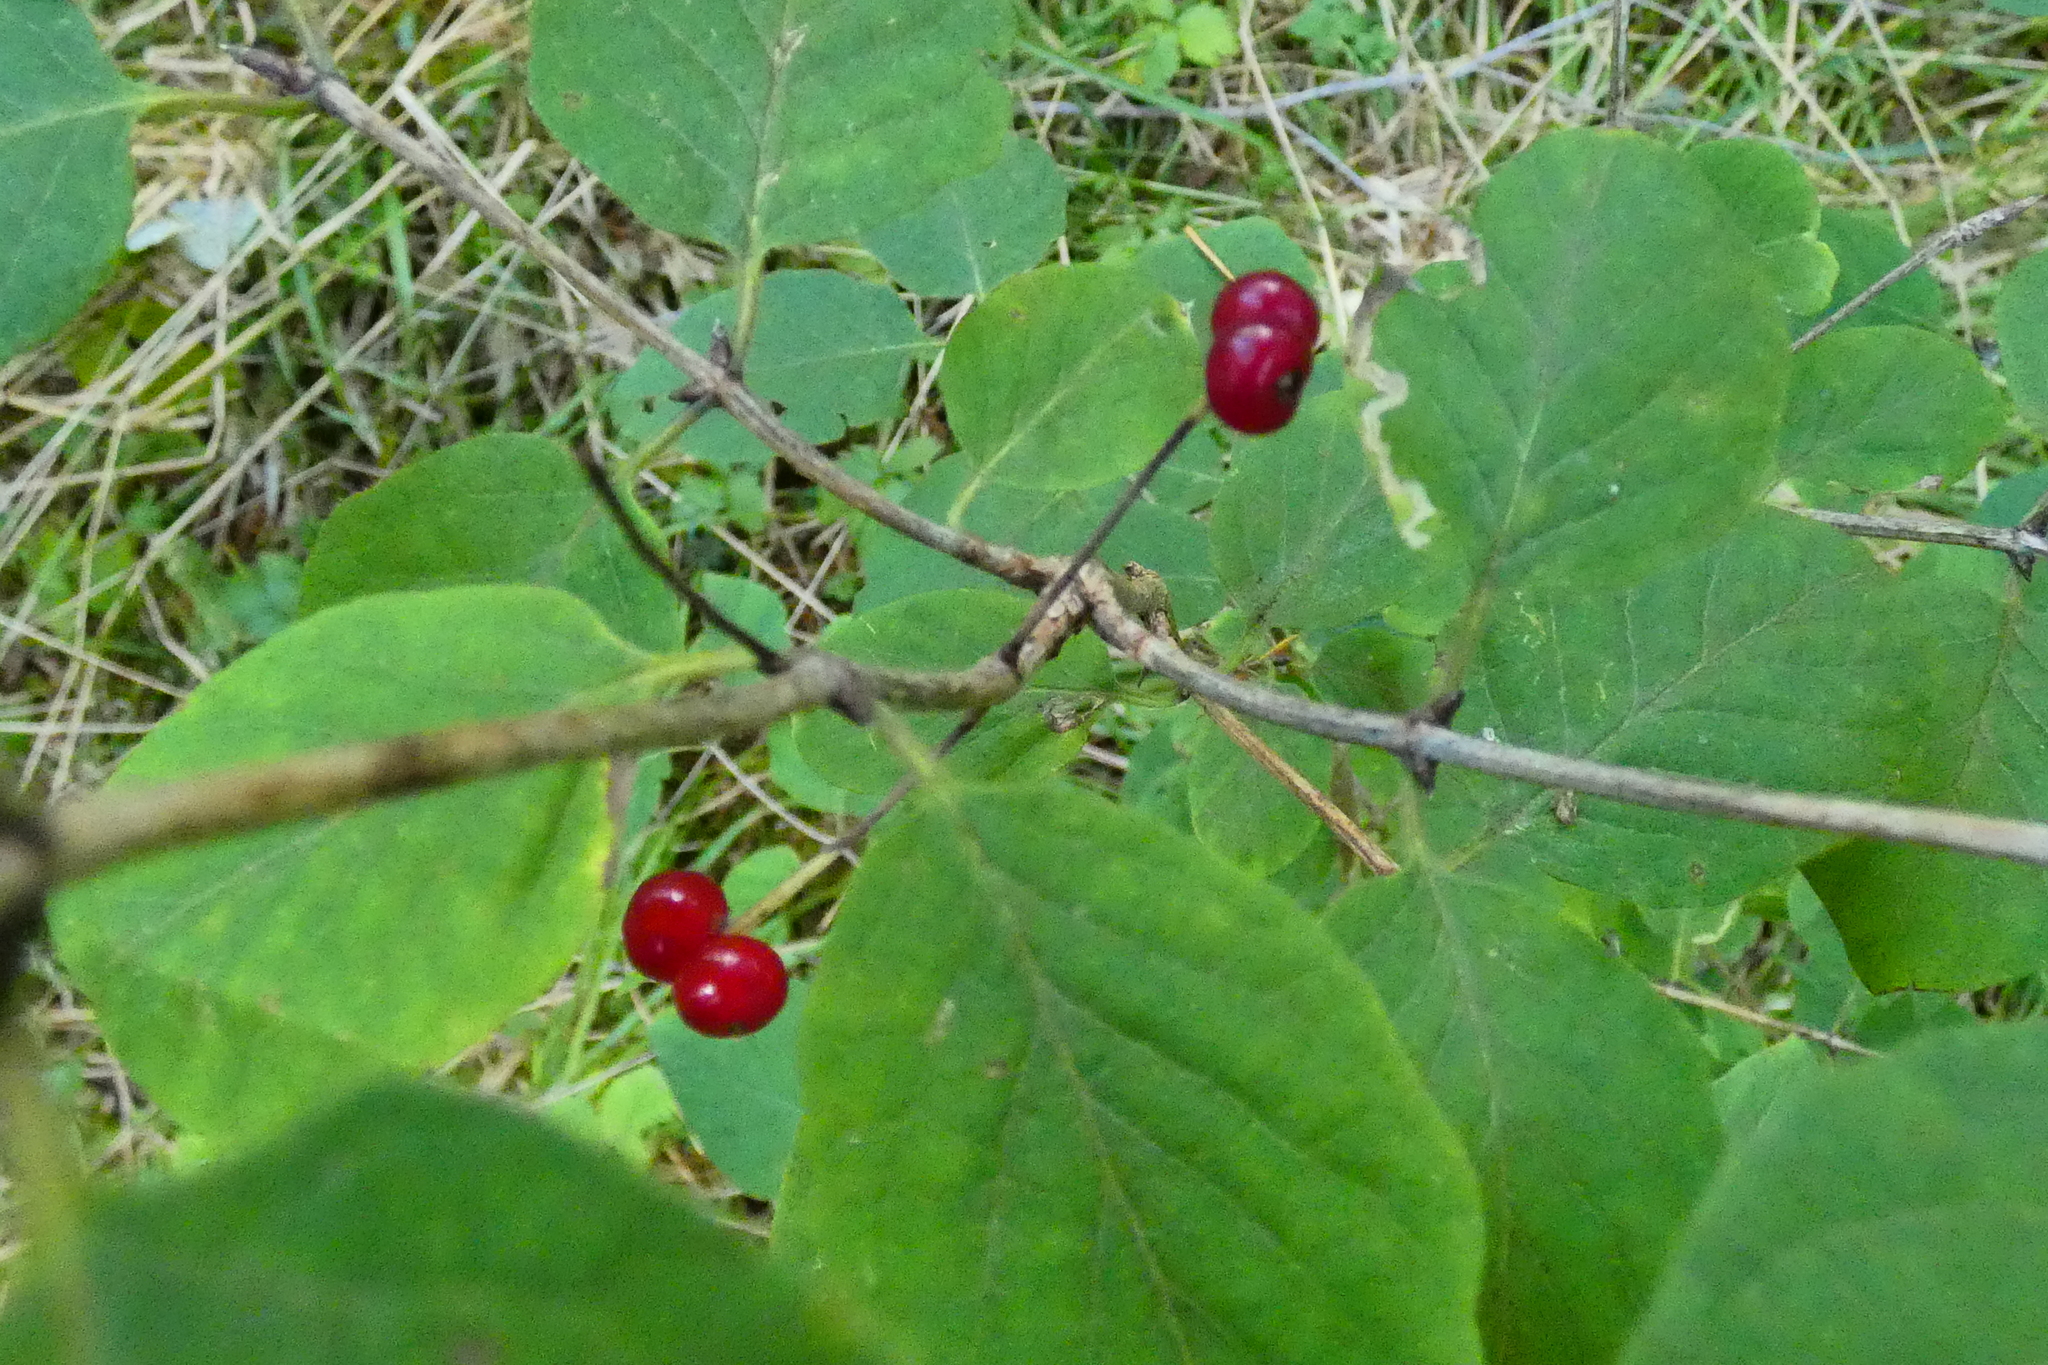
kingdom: Plantae
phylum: Tracheophyta
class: Magnoliopsida
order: Dipsacales
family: Caprifoliaceae
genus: Lonicera
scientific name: Lonicera xylosteum
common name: Fly honeysuckle
